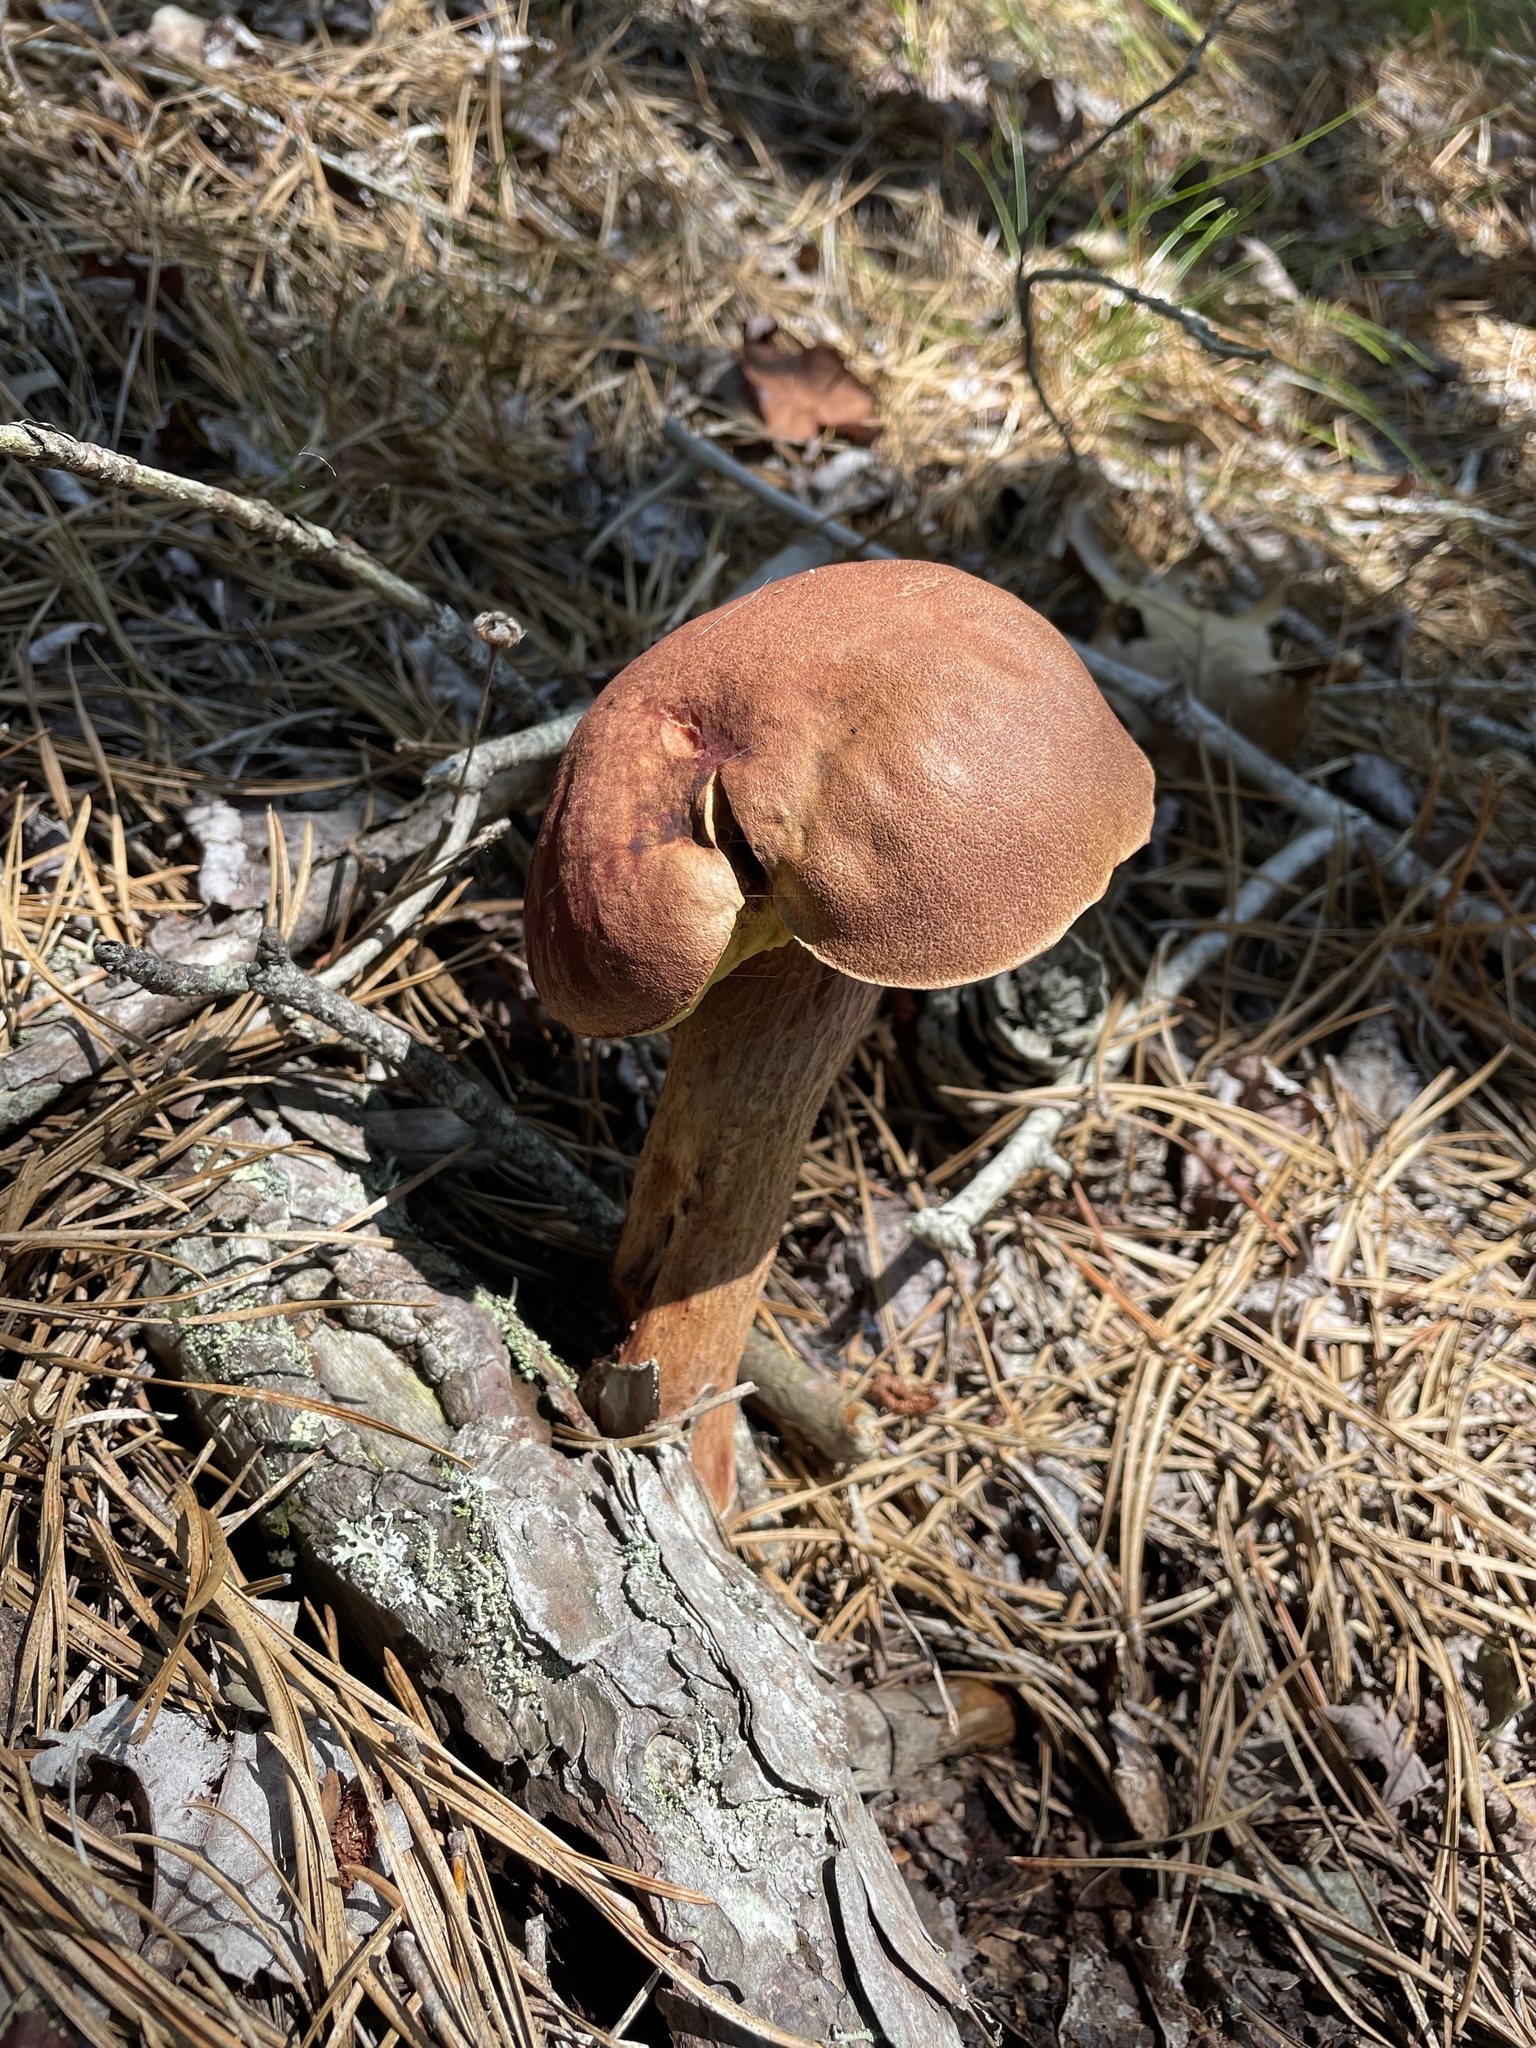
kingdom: Fungi
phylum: Basidiomycota
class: Agaricomycetes
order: Boletales
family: Boletaceae
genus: Aureoboletus
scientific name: Aureoboletus projectellus
